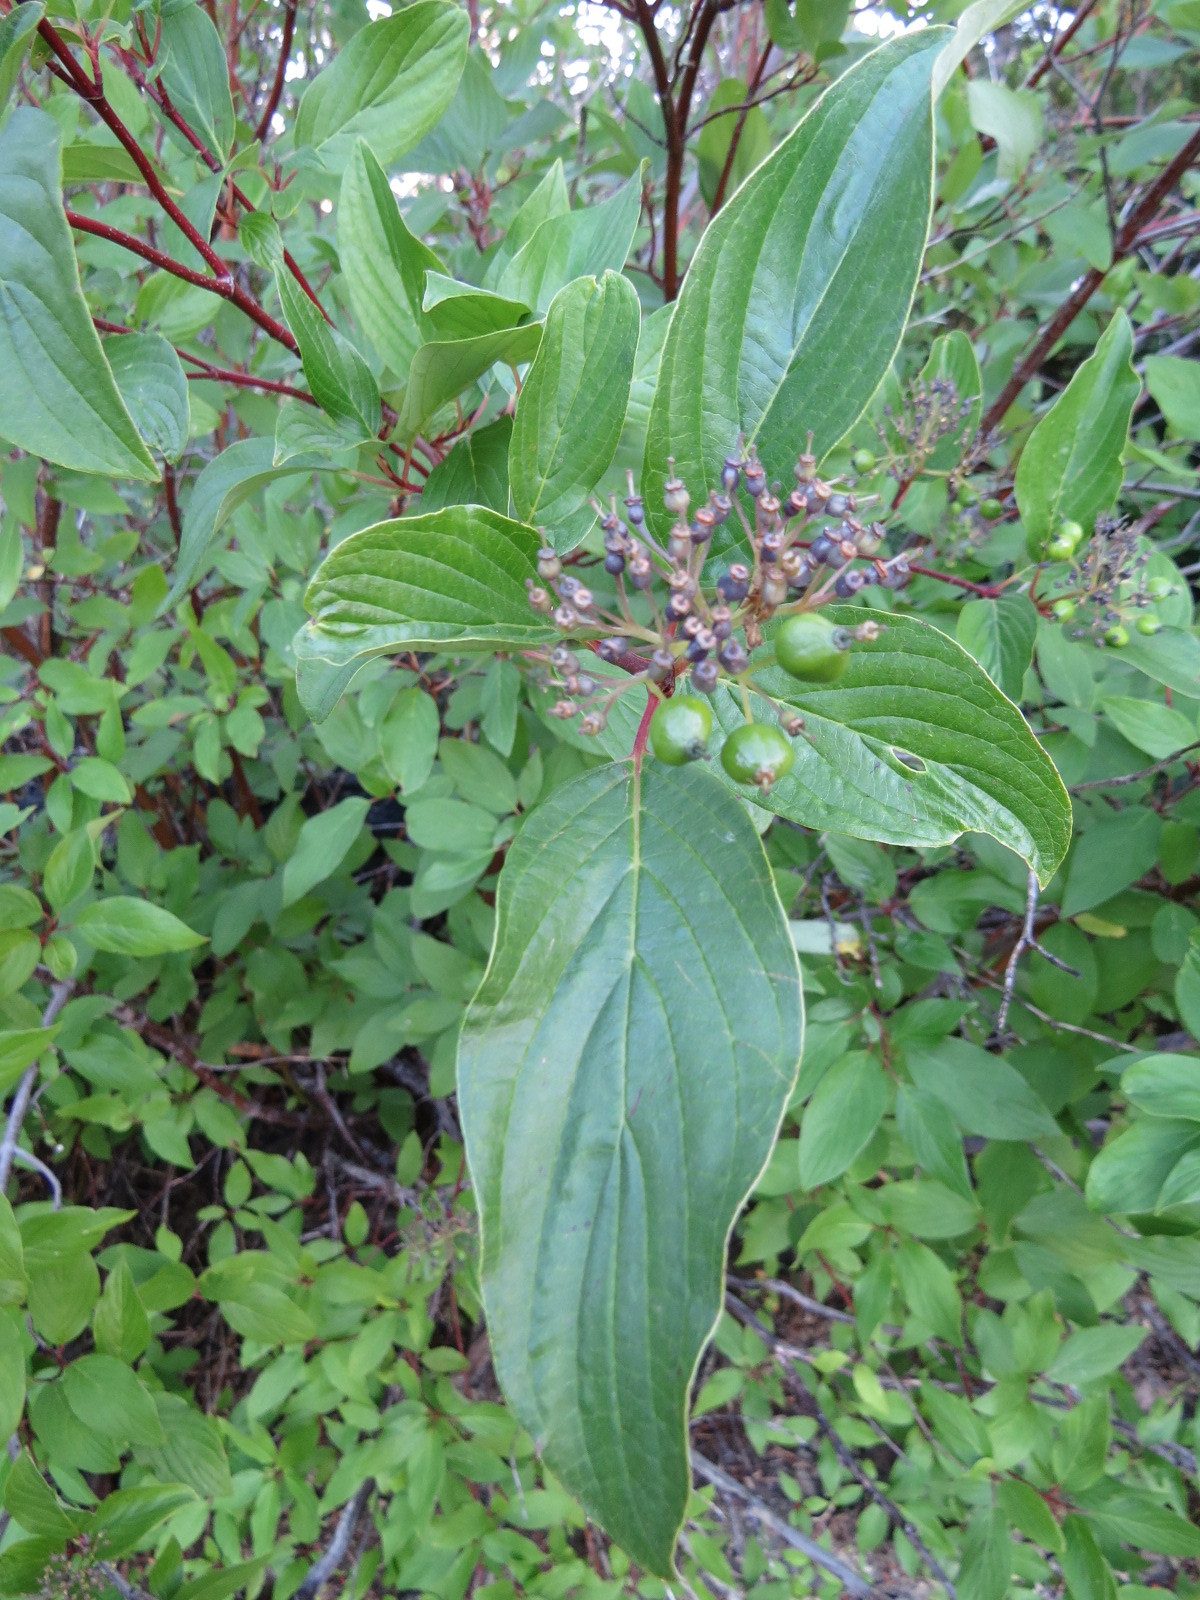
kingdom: Plantae
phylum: Tracheophyta
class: Magnoliopsida
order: Cornales
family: Cornaceae
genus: Cornus
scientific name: Cornus sericea
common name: Red-osier dogwood
